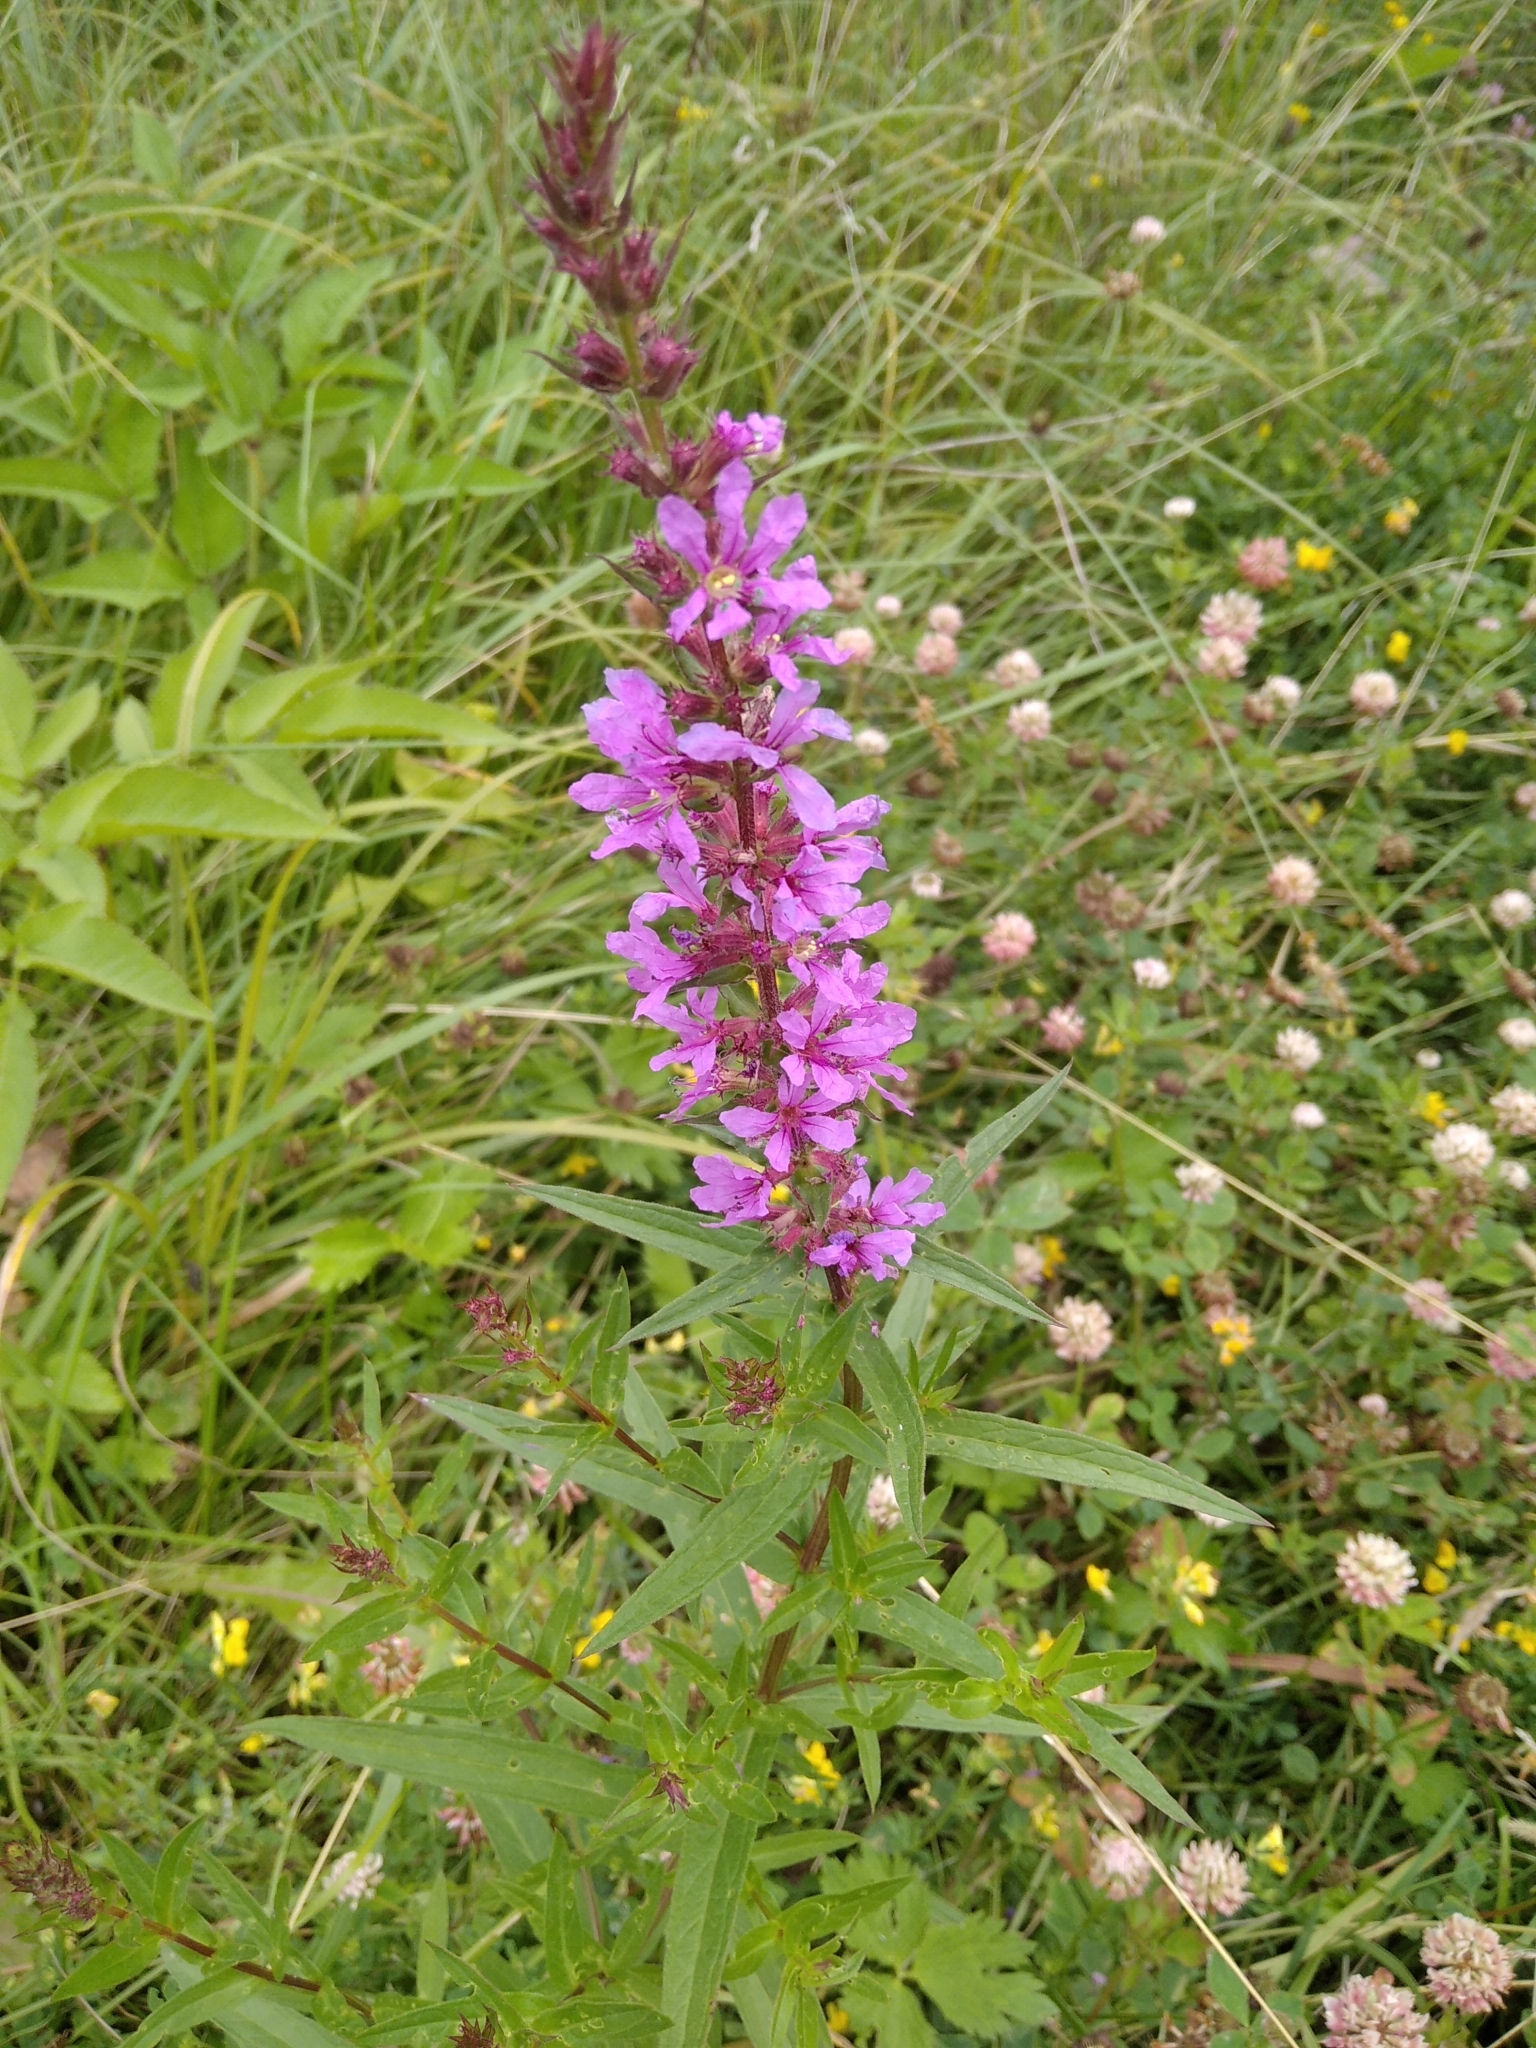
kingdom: Plantae
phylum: Tracheophyta
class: Magnoliopsida
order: Myrtales
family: Lythraceae
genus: Lythrum
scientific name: Lythrum salicaria
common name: Purple loosestrife
